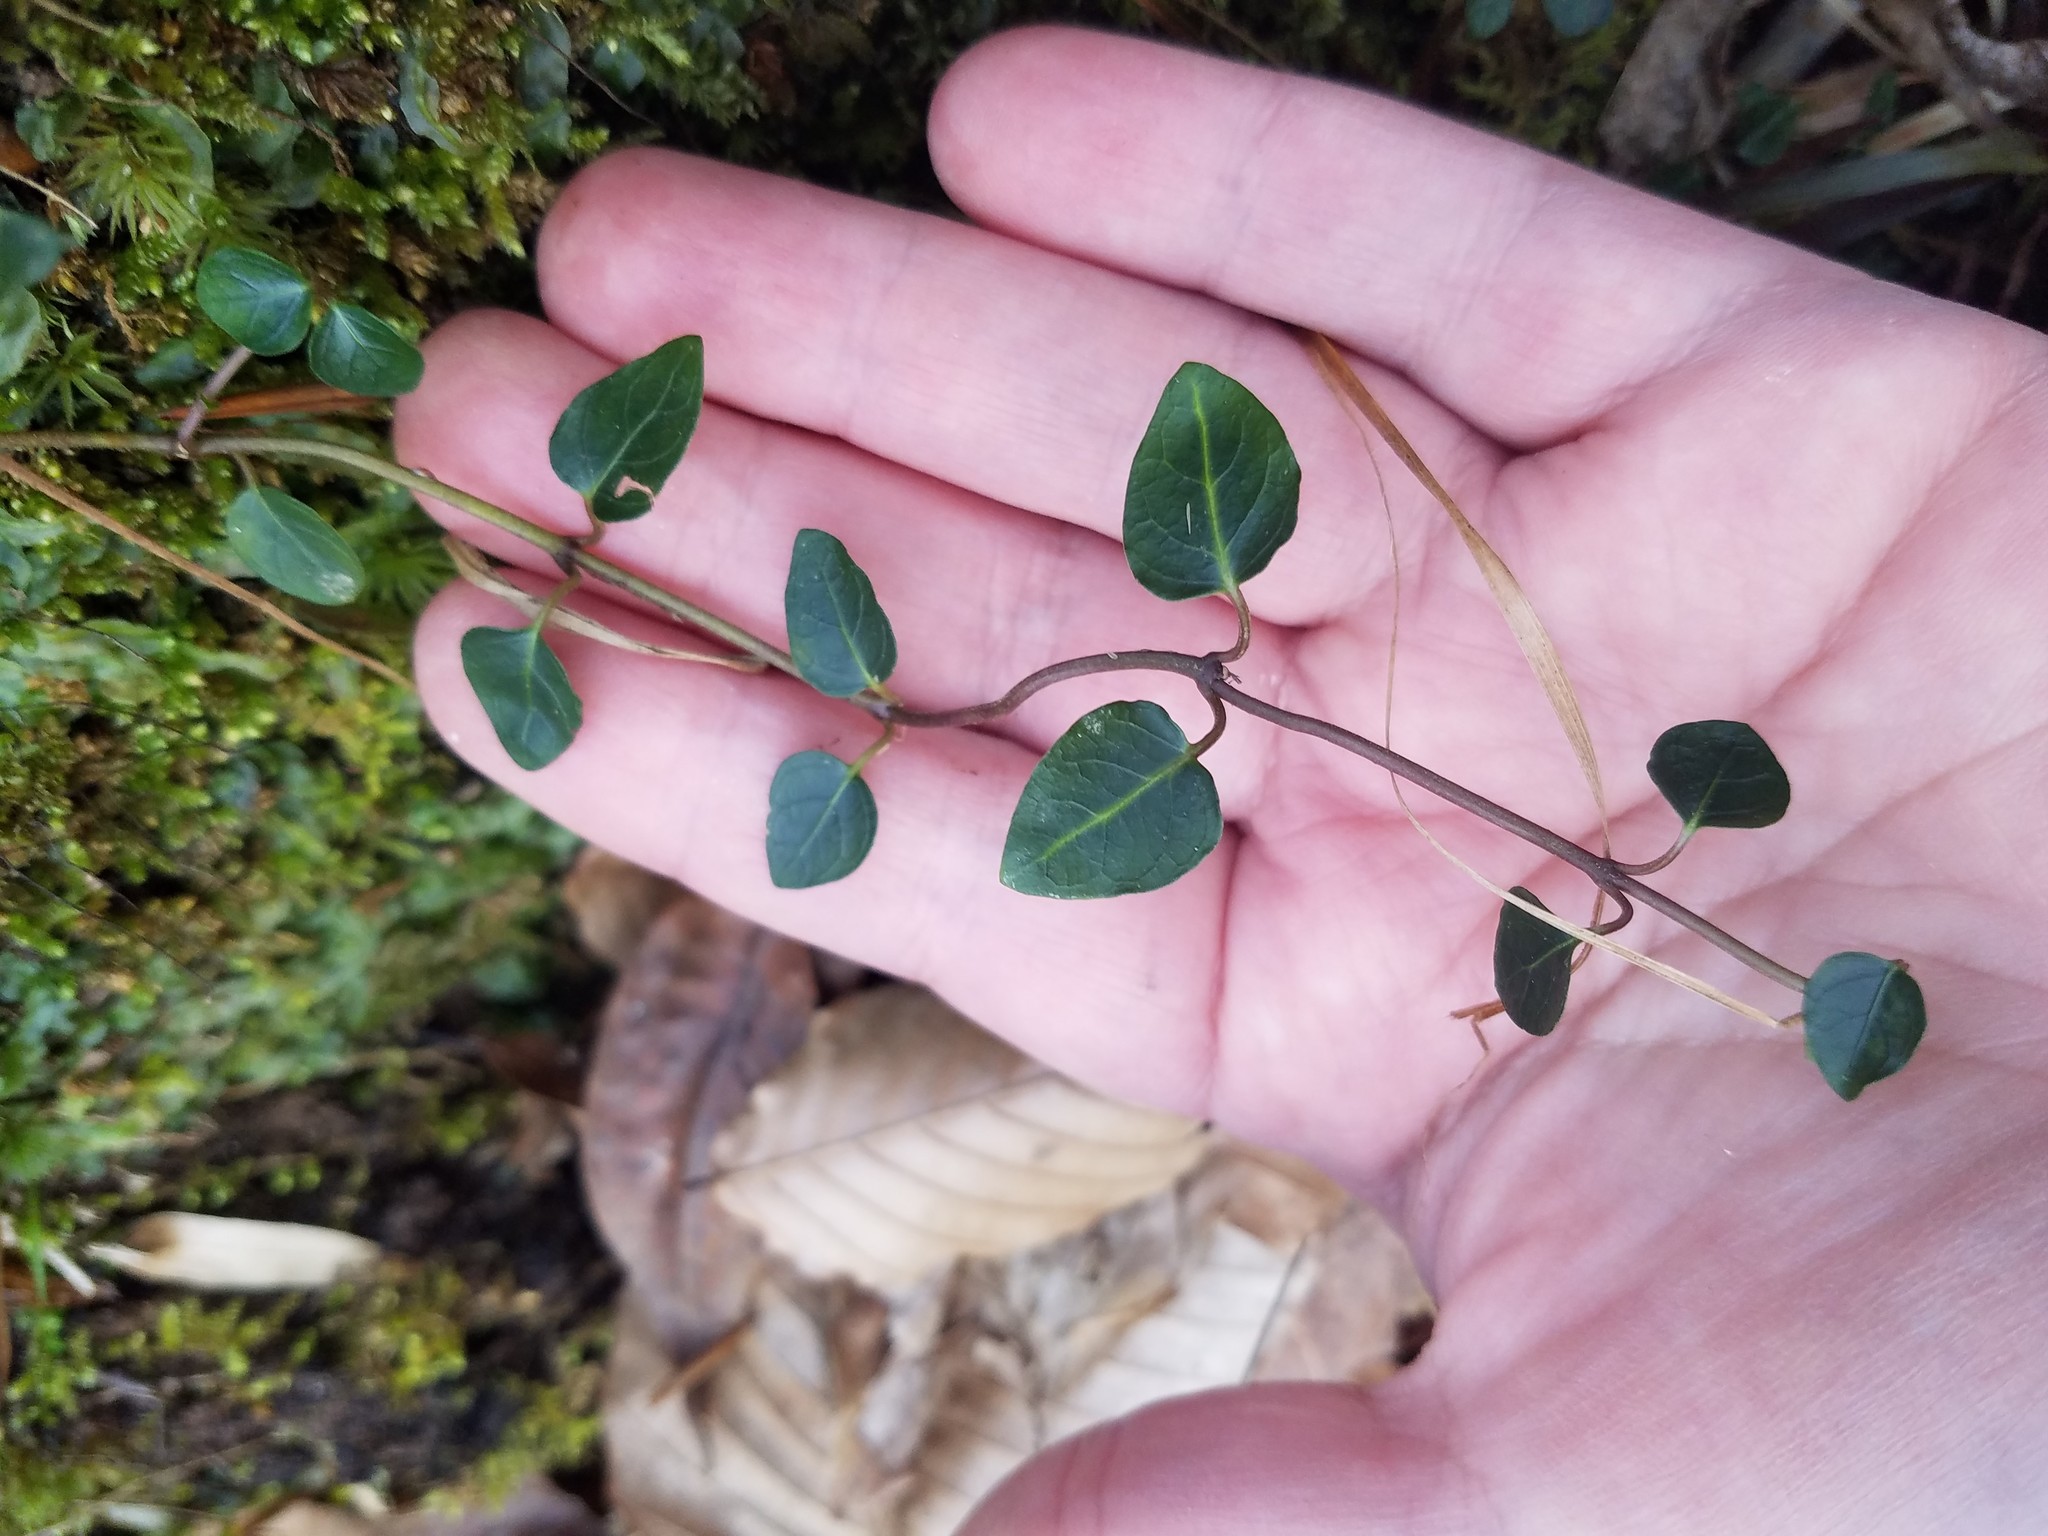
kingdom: Plantae
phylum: Tracheophyta
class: Magnoliopsida
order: Gentianales
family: Rubiaceae
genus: Mitchella
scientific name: Mitchella repens
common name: Partridge-berry
